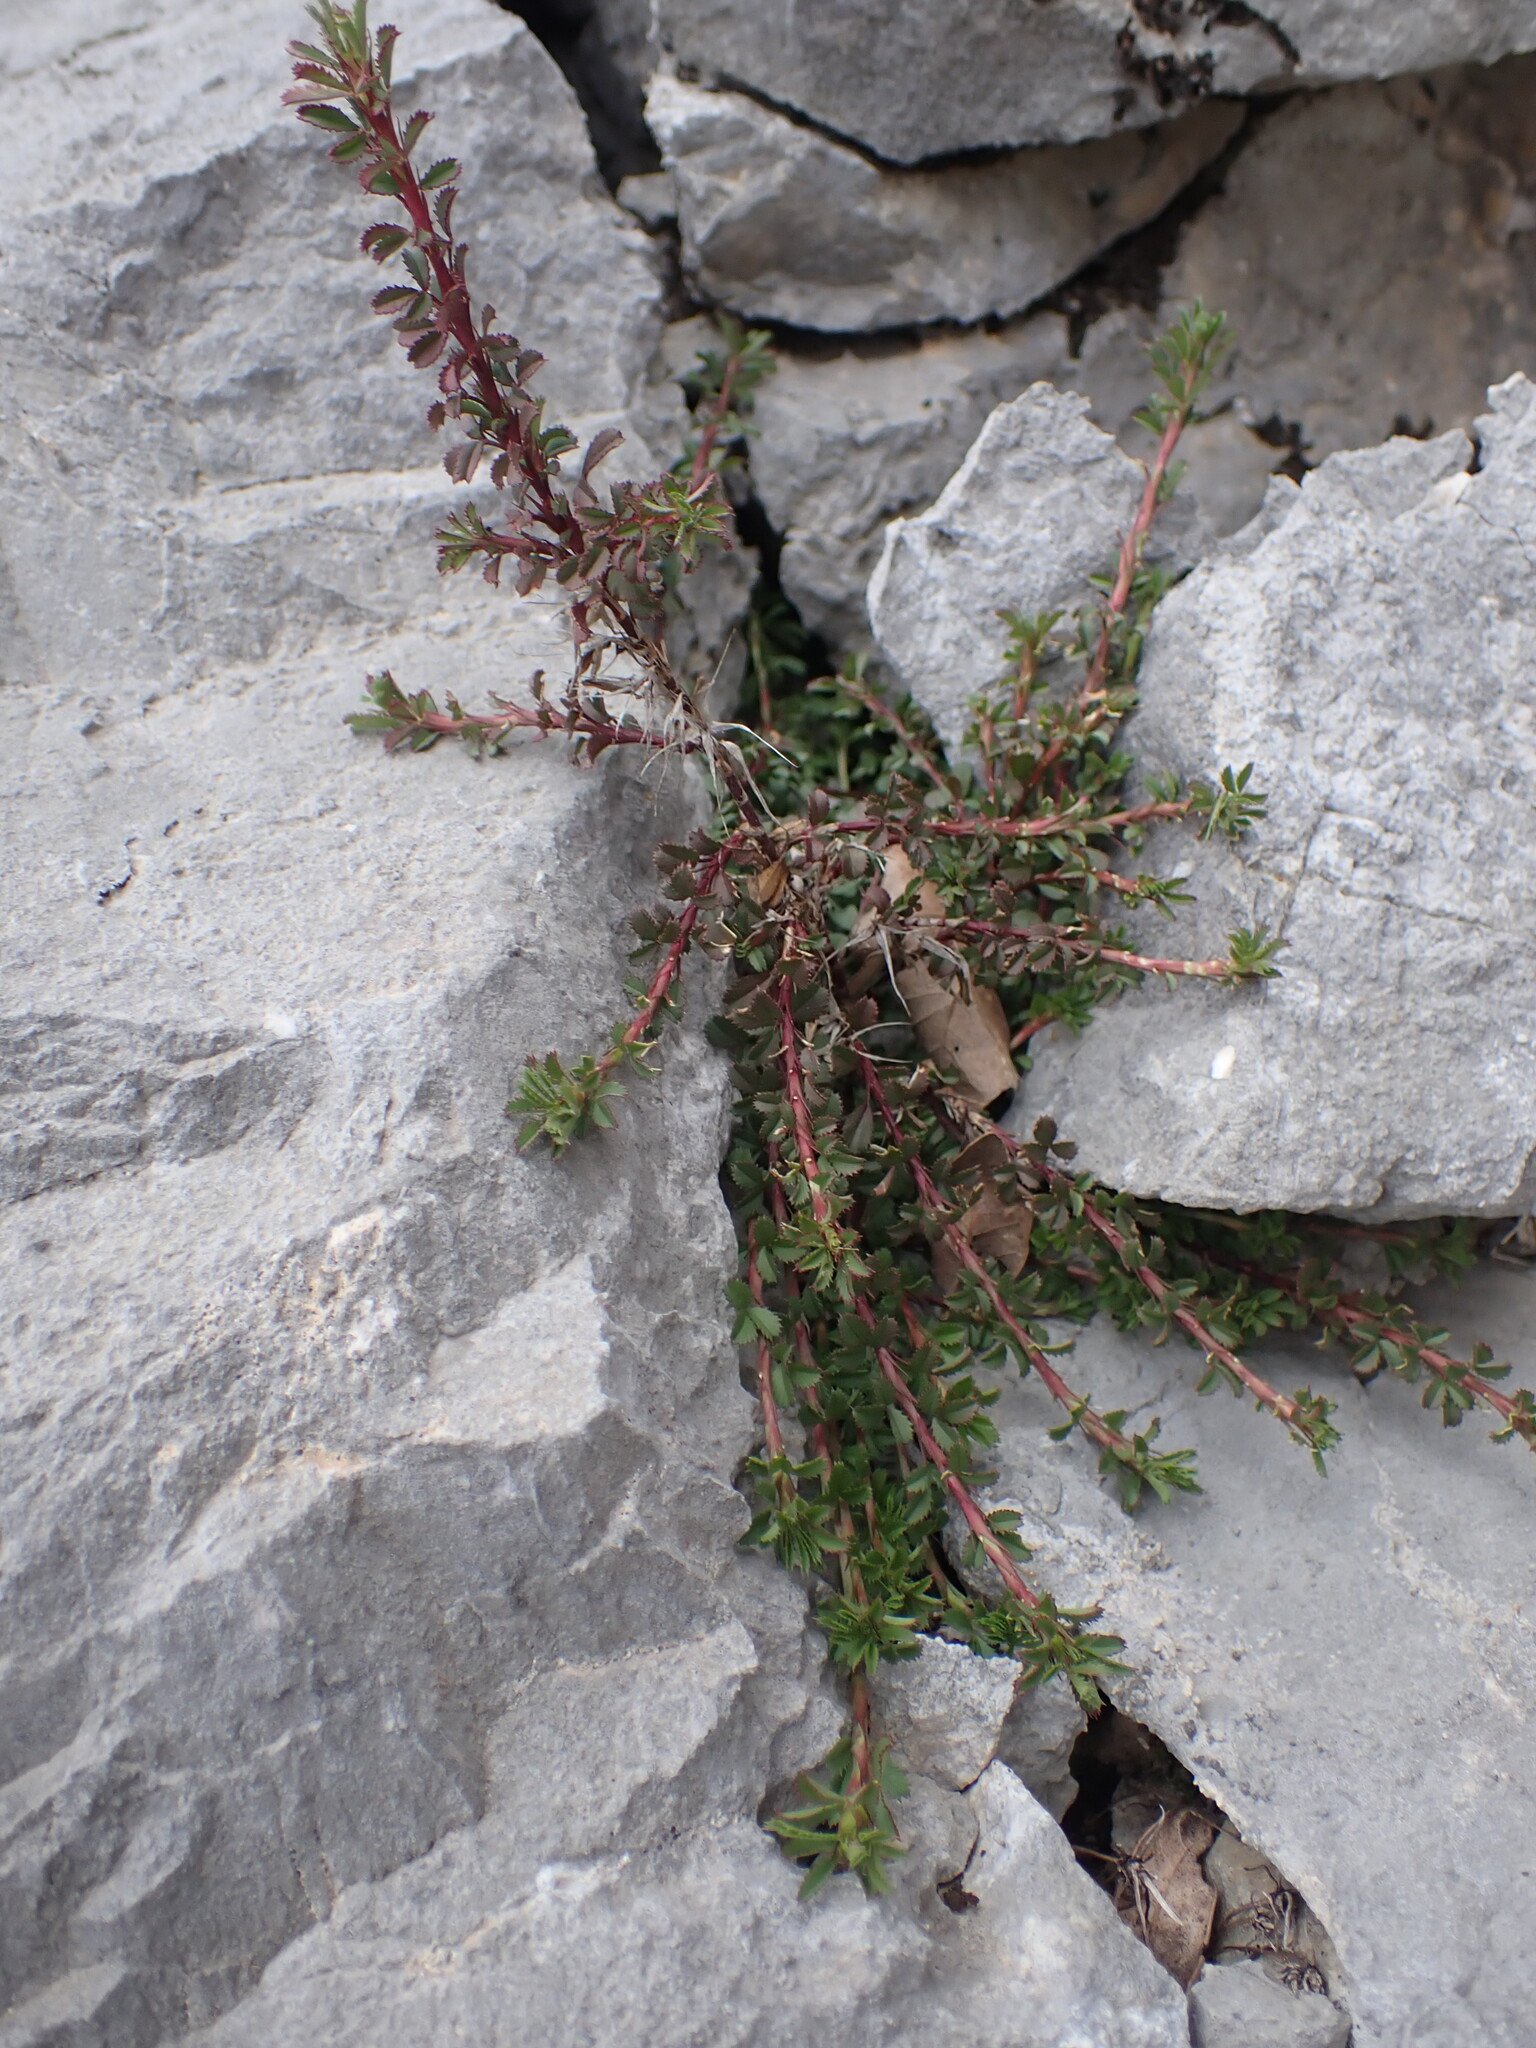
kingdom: Plantae
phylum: Tracheophyta
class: Magnoliopsida
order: Fabales
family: Fabaceae
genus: Ononis
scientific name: Ononis minutissima
